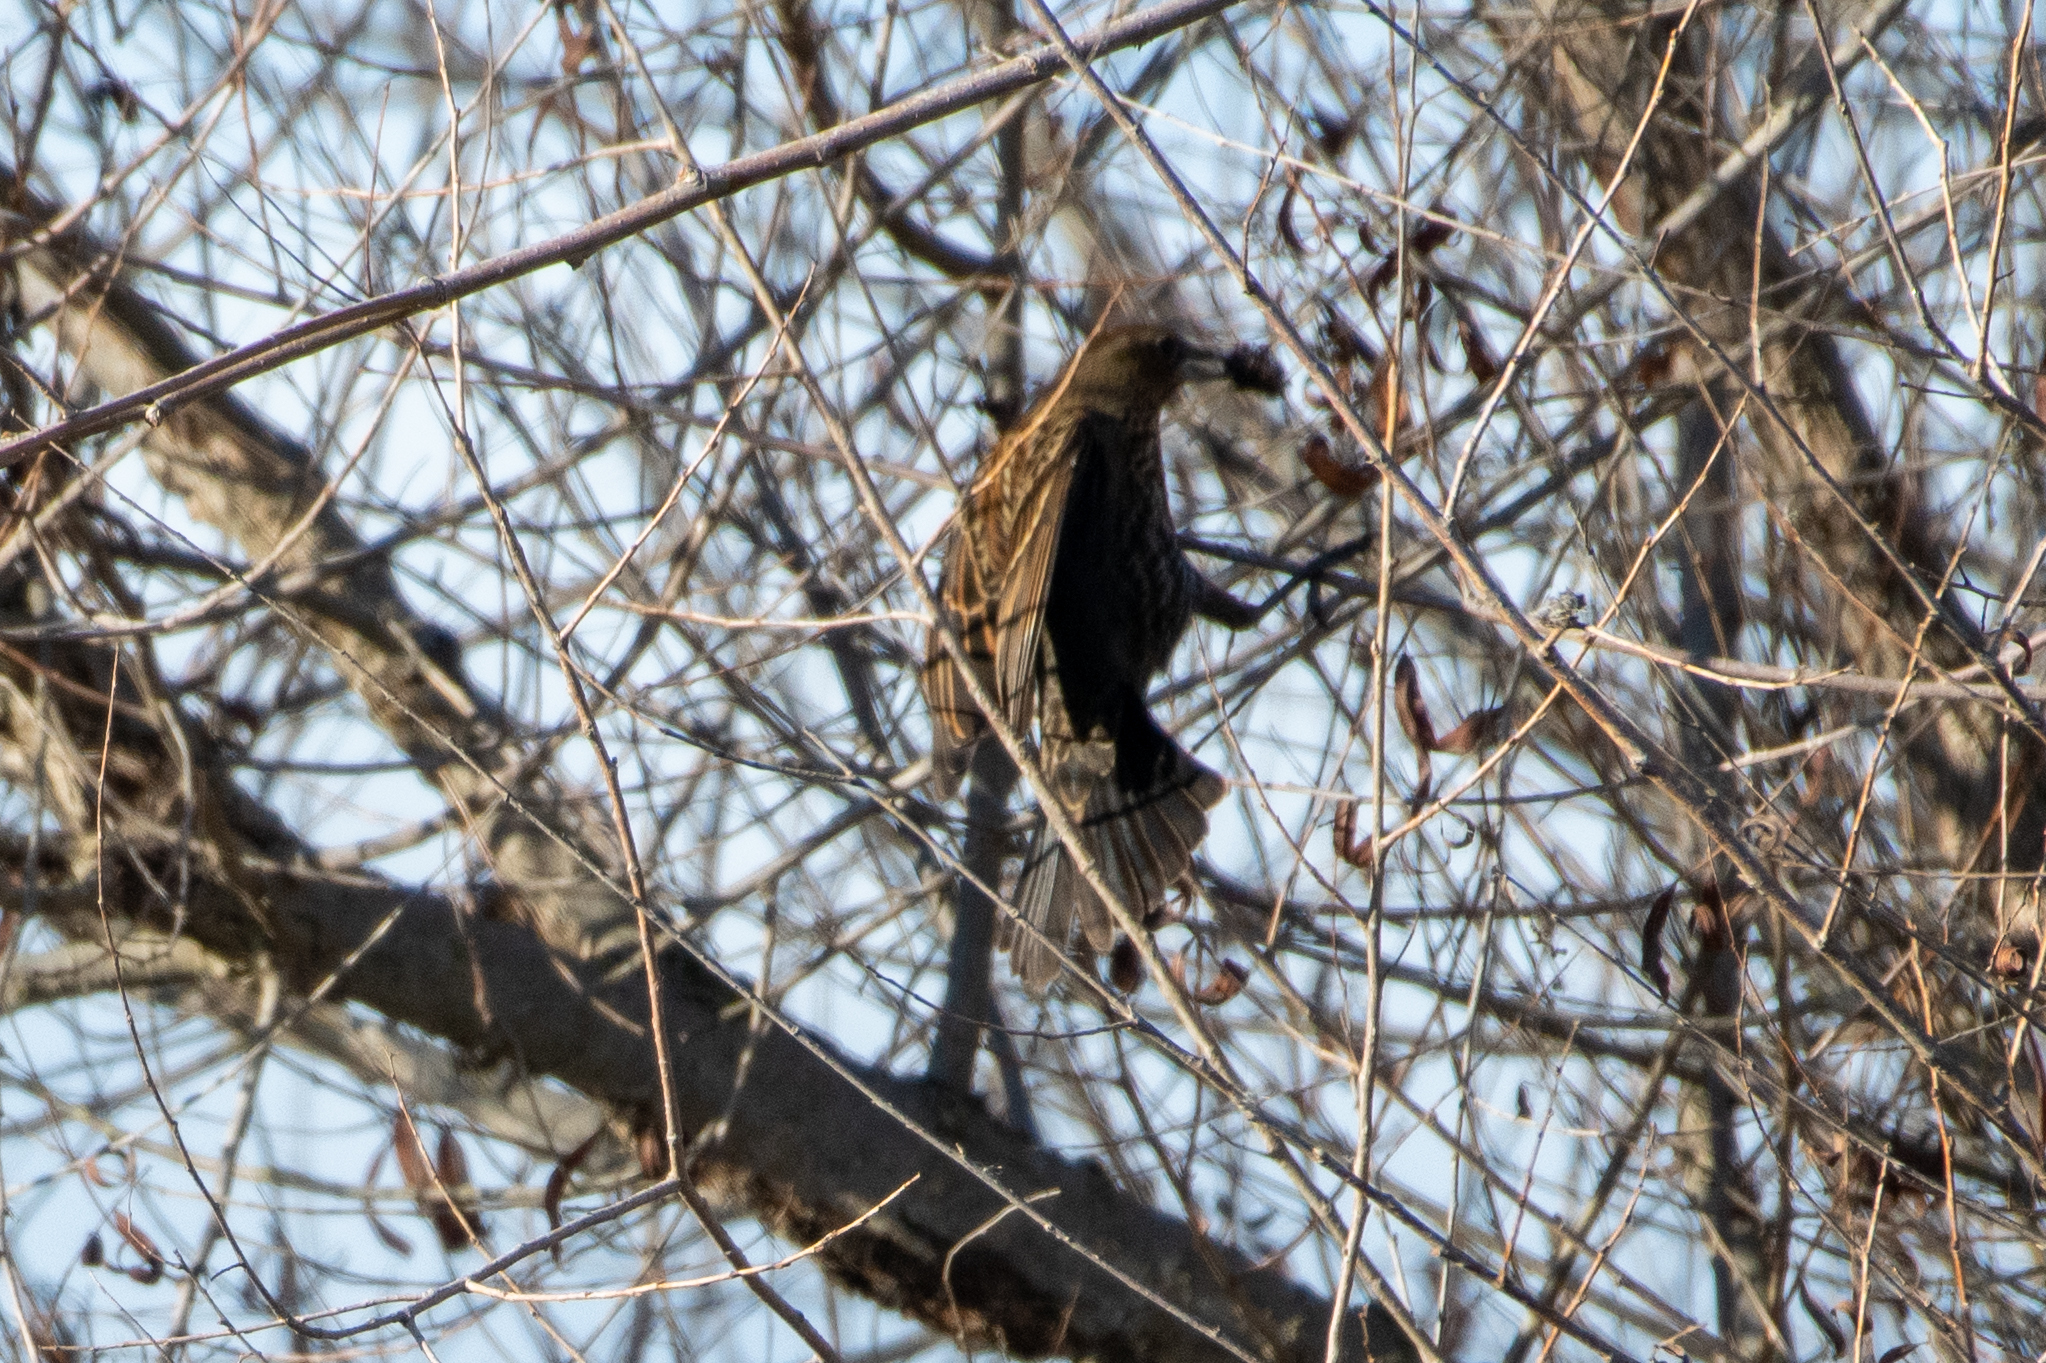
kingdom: Animalia
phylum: Chordata
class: Aves
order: Passeriformes
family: Icteridae
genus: Agelaius
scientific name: Agelaius phoeniceus
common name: Red-winged blackbird
